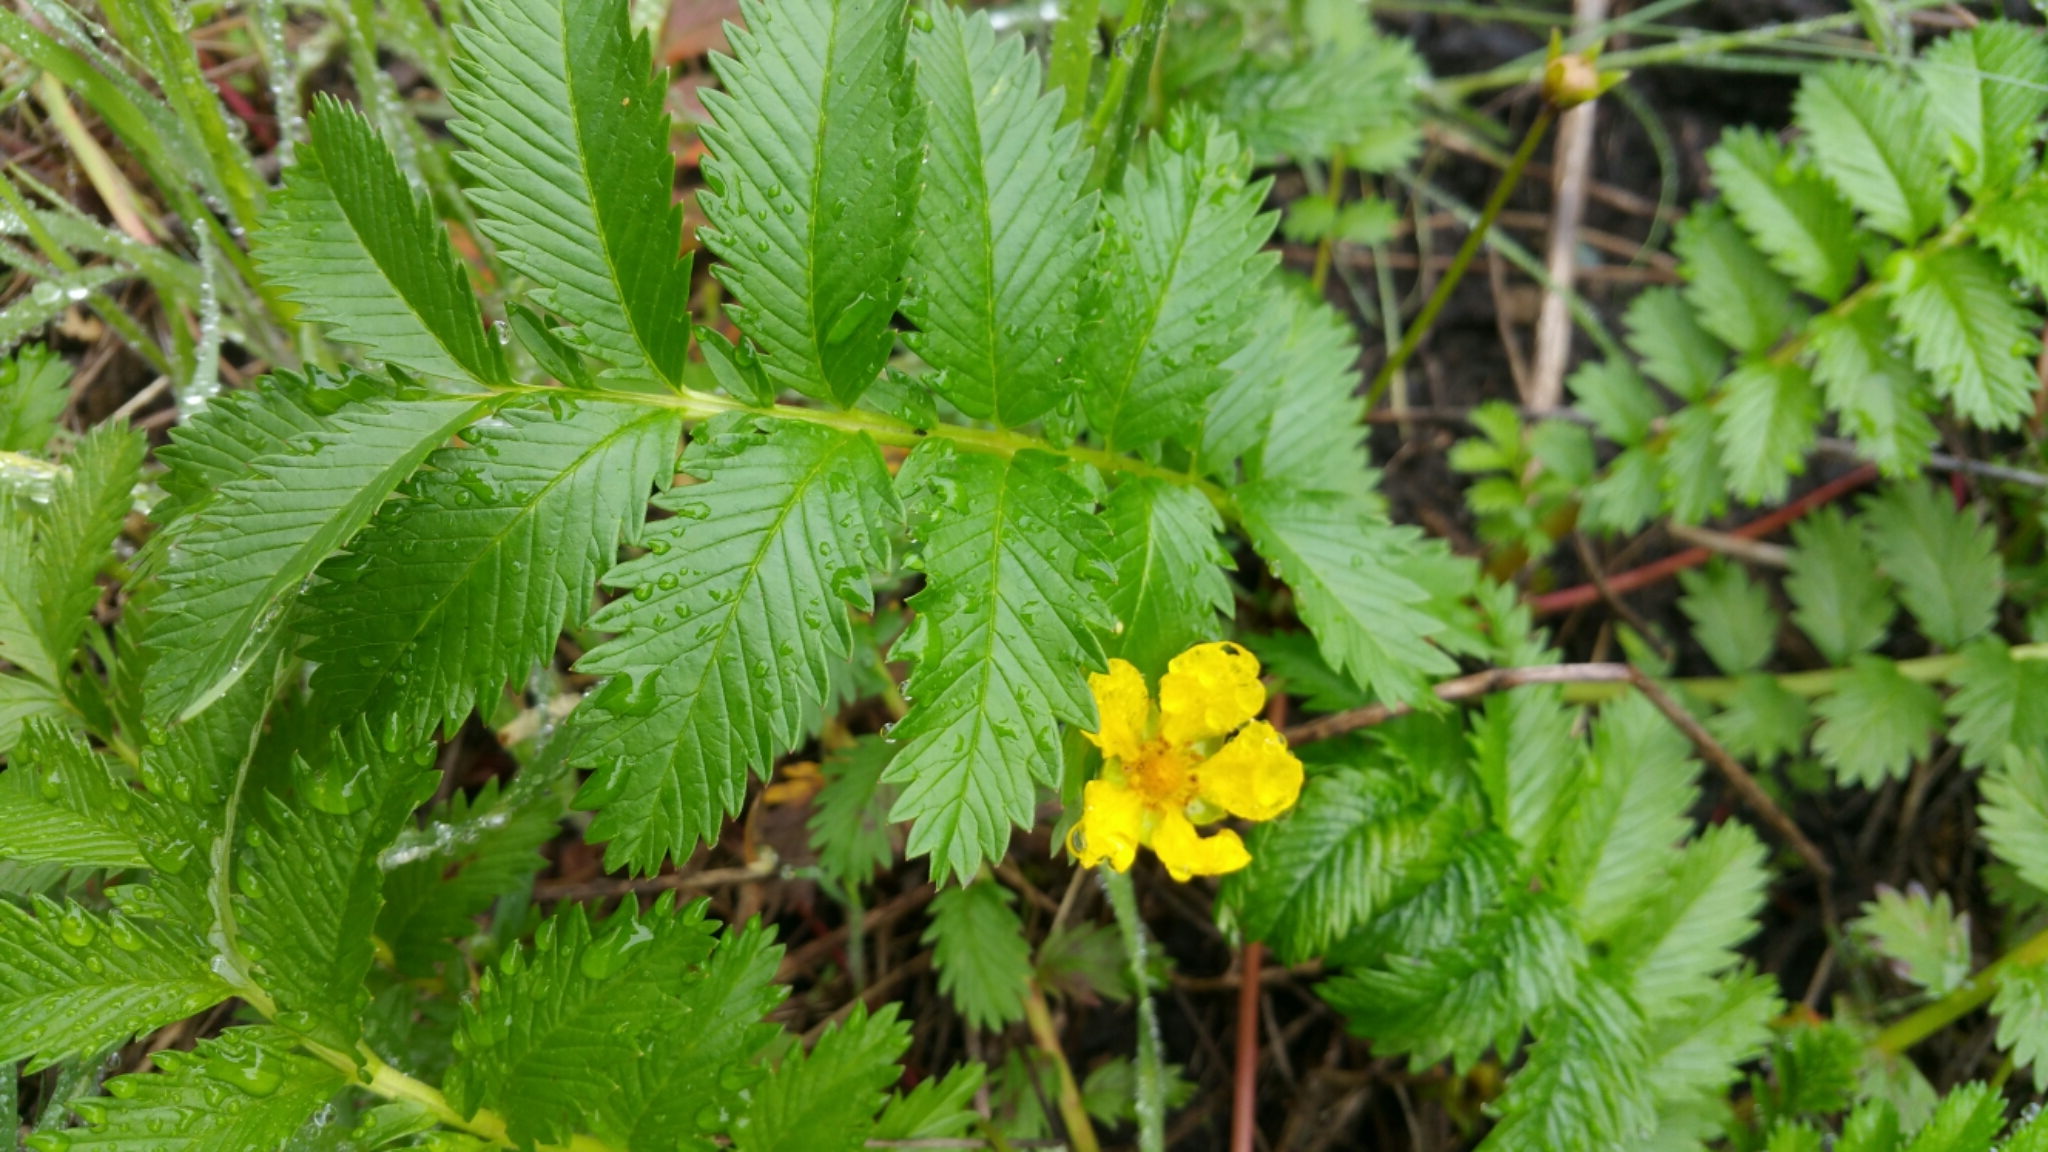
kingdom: Plantae
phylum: Tracheophyta
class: Magnoliopsida
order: Rosales
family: Rosaceae
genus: Argentina
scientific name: Argentina anserina
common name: Common silverweed
